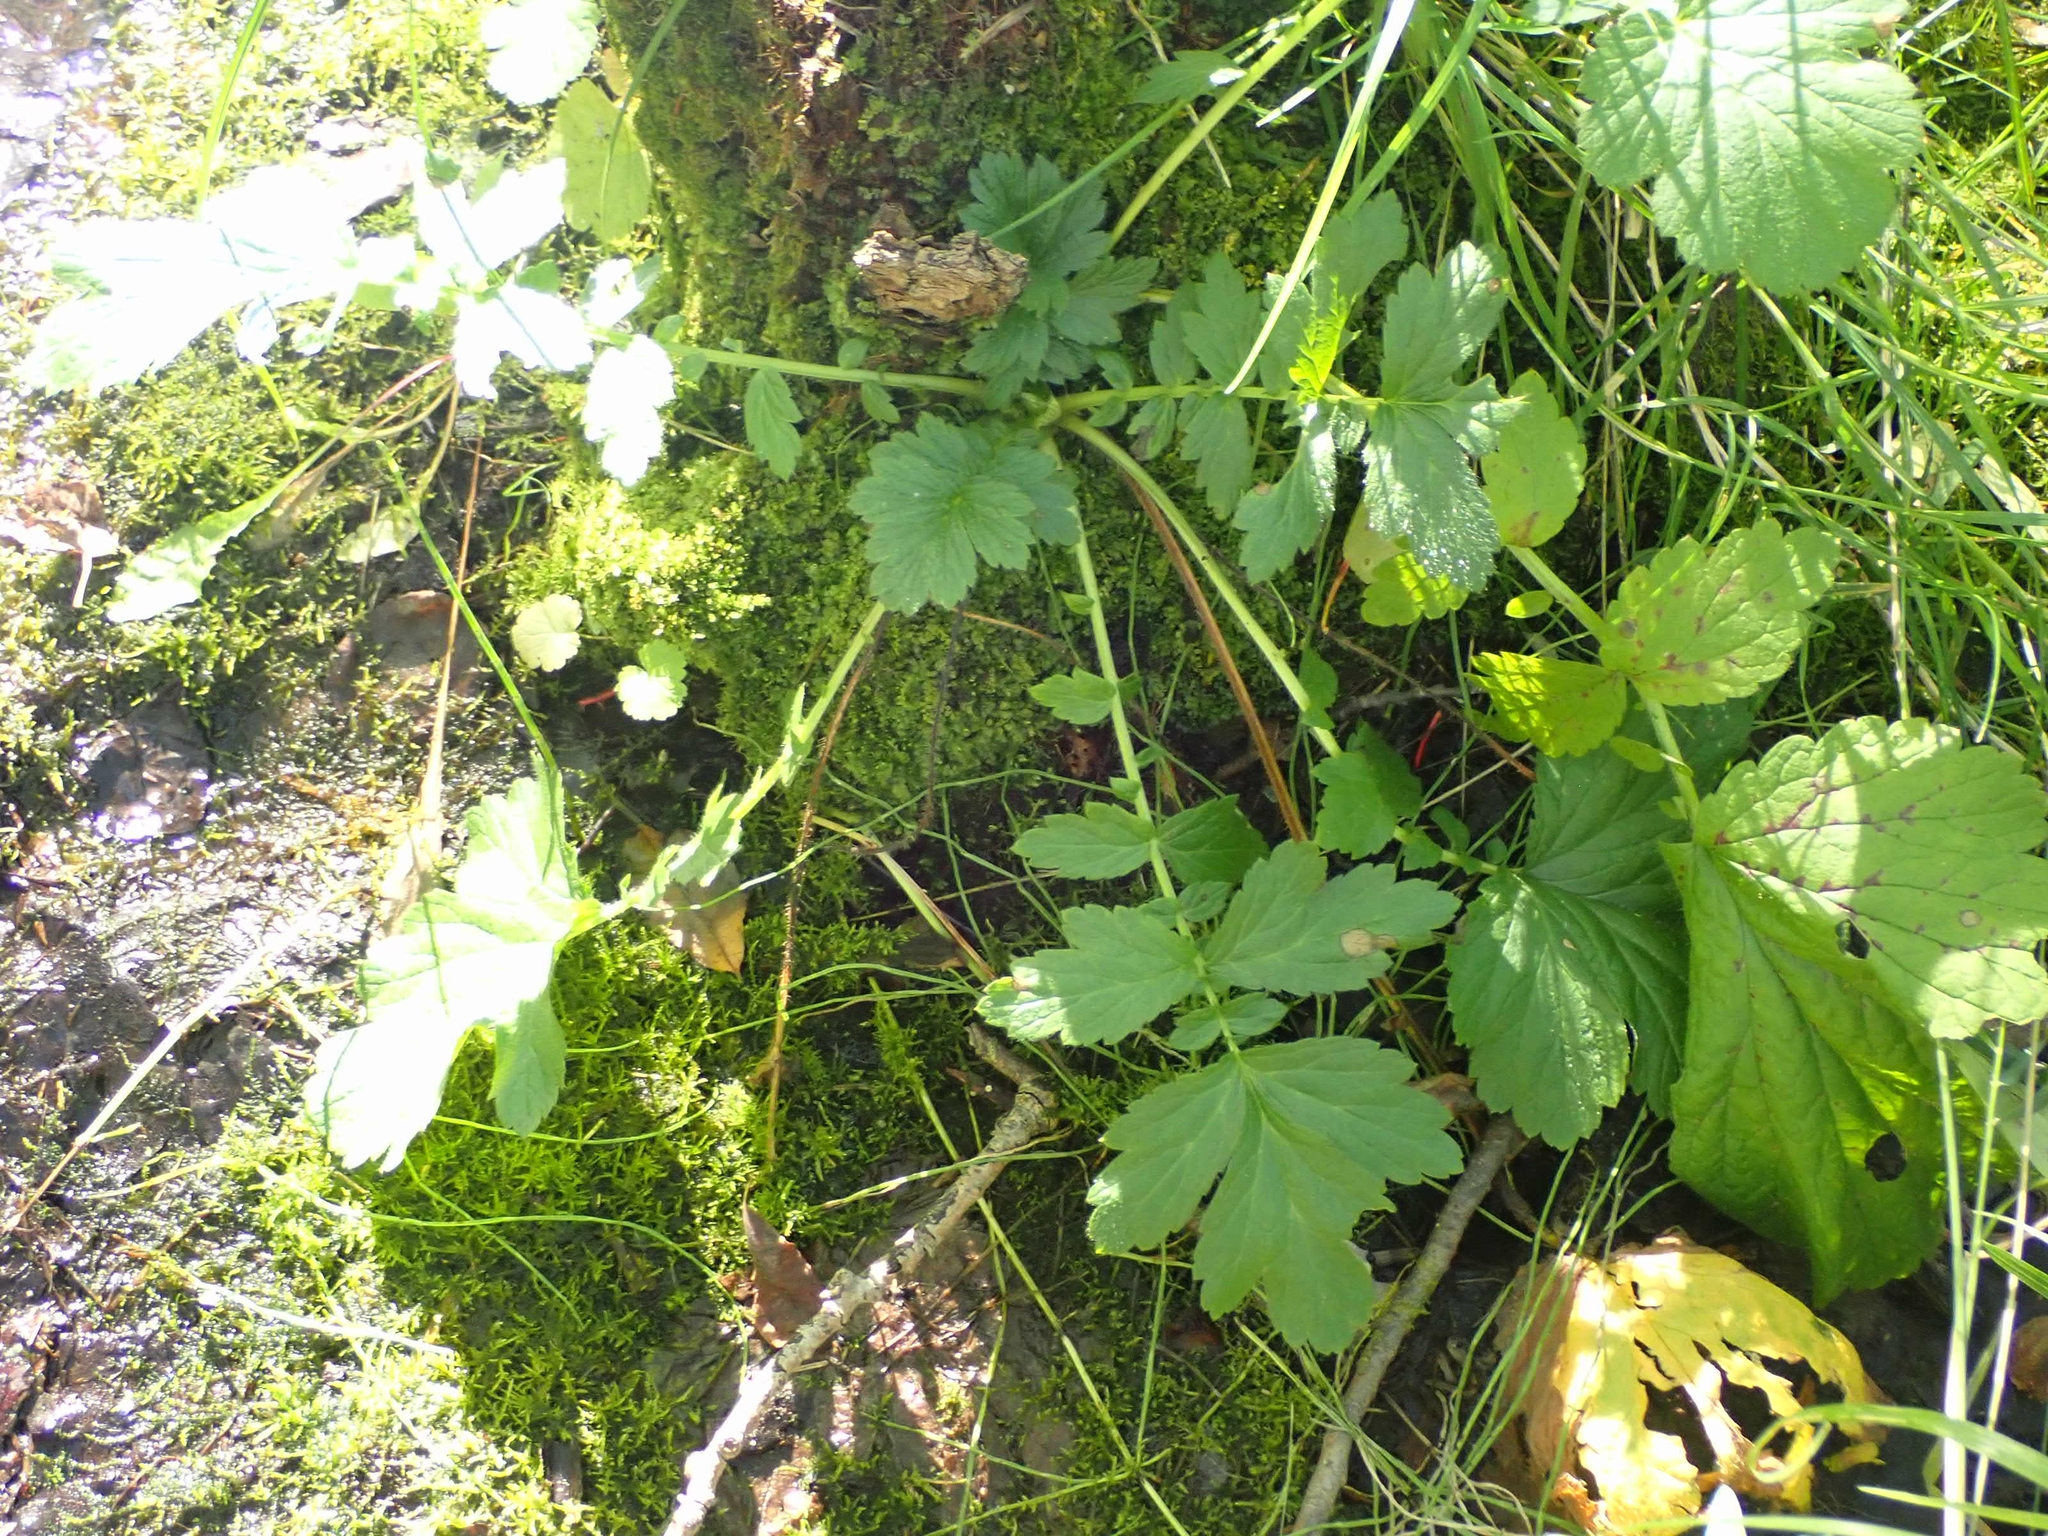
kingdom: Plantae
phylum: Tracheophyta
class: Magnoliopsida
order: Rosales
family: Rosaceae
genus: Geum
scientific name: Geum aleppicum
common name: Yellow avens
